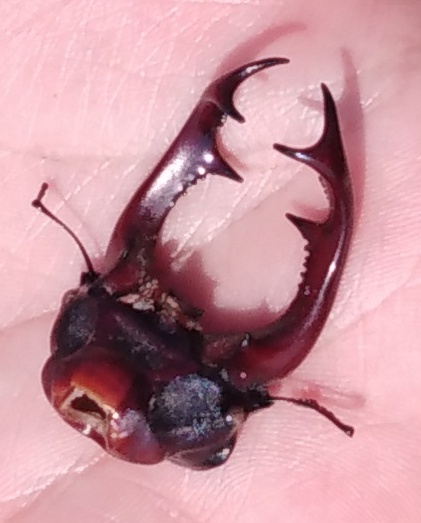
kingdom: Animalia
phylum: Arthropoda
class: Insecta
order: Coleoptera
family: Lucanidae
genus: Lucanus
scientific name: Lucanus cervus
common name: Stag beetle
